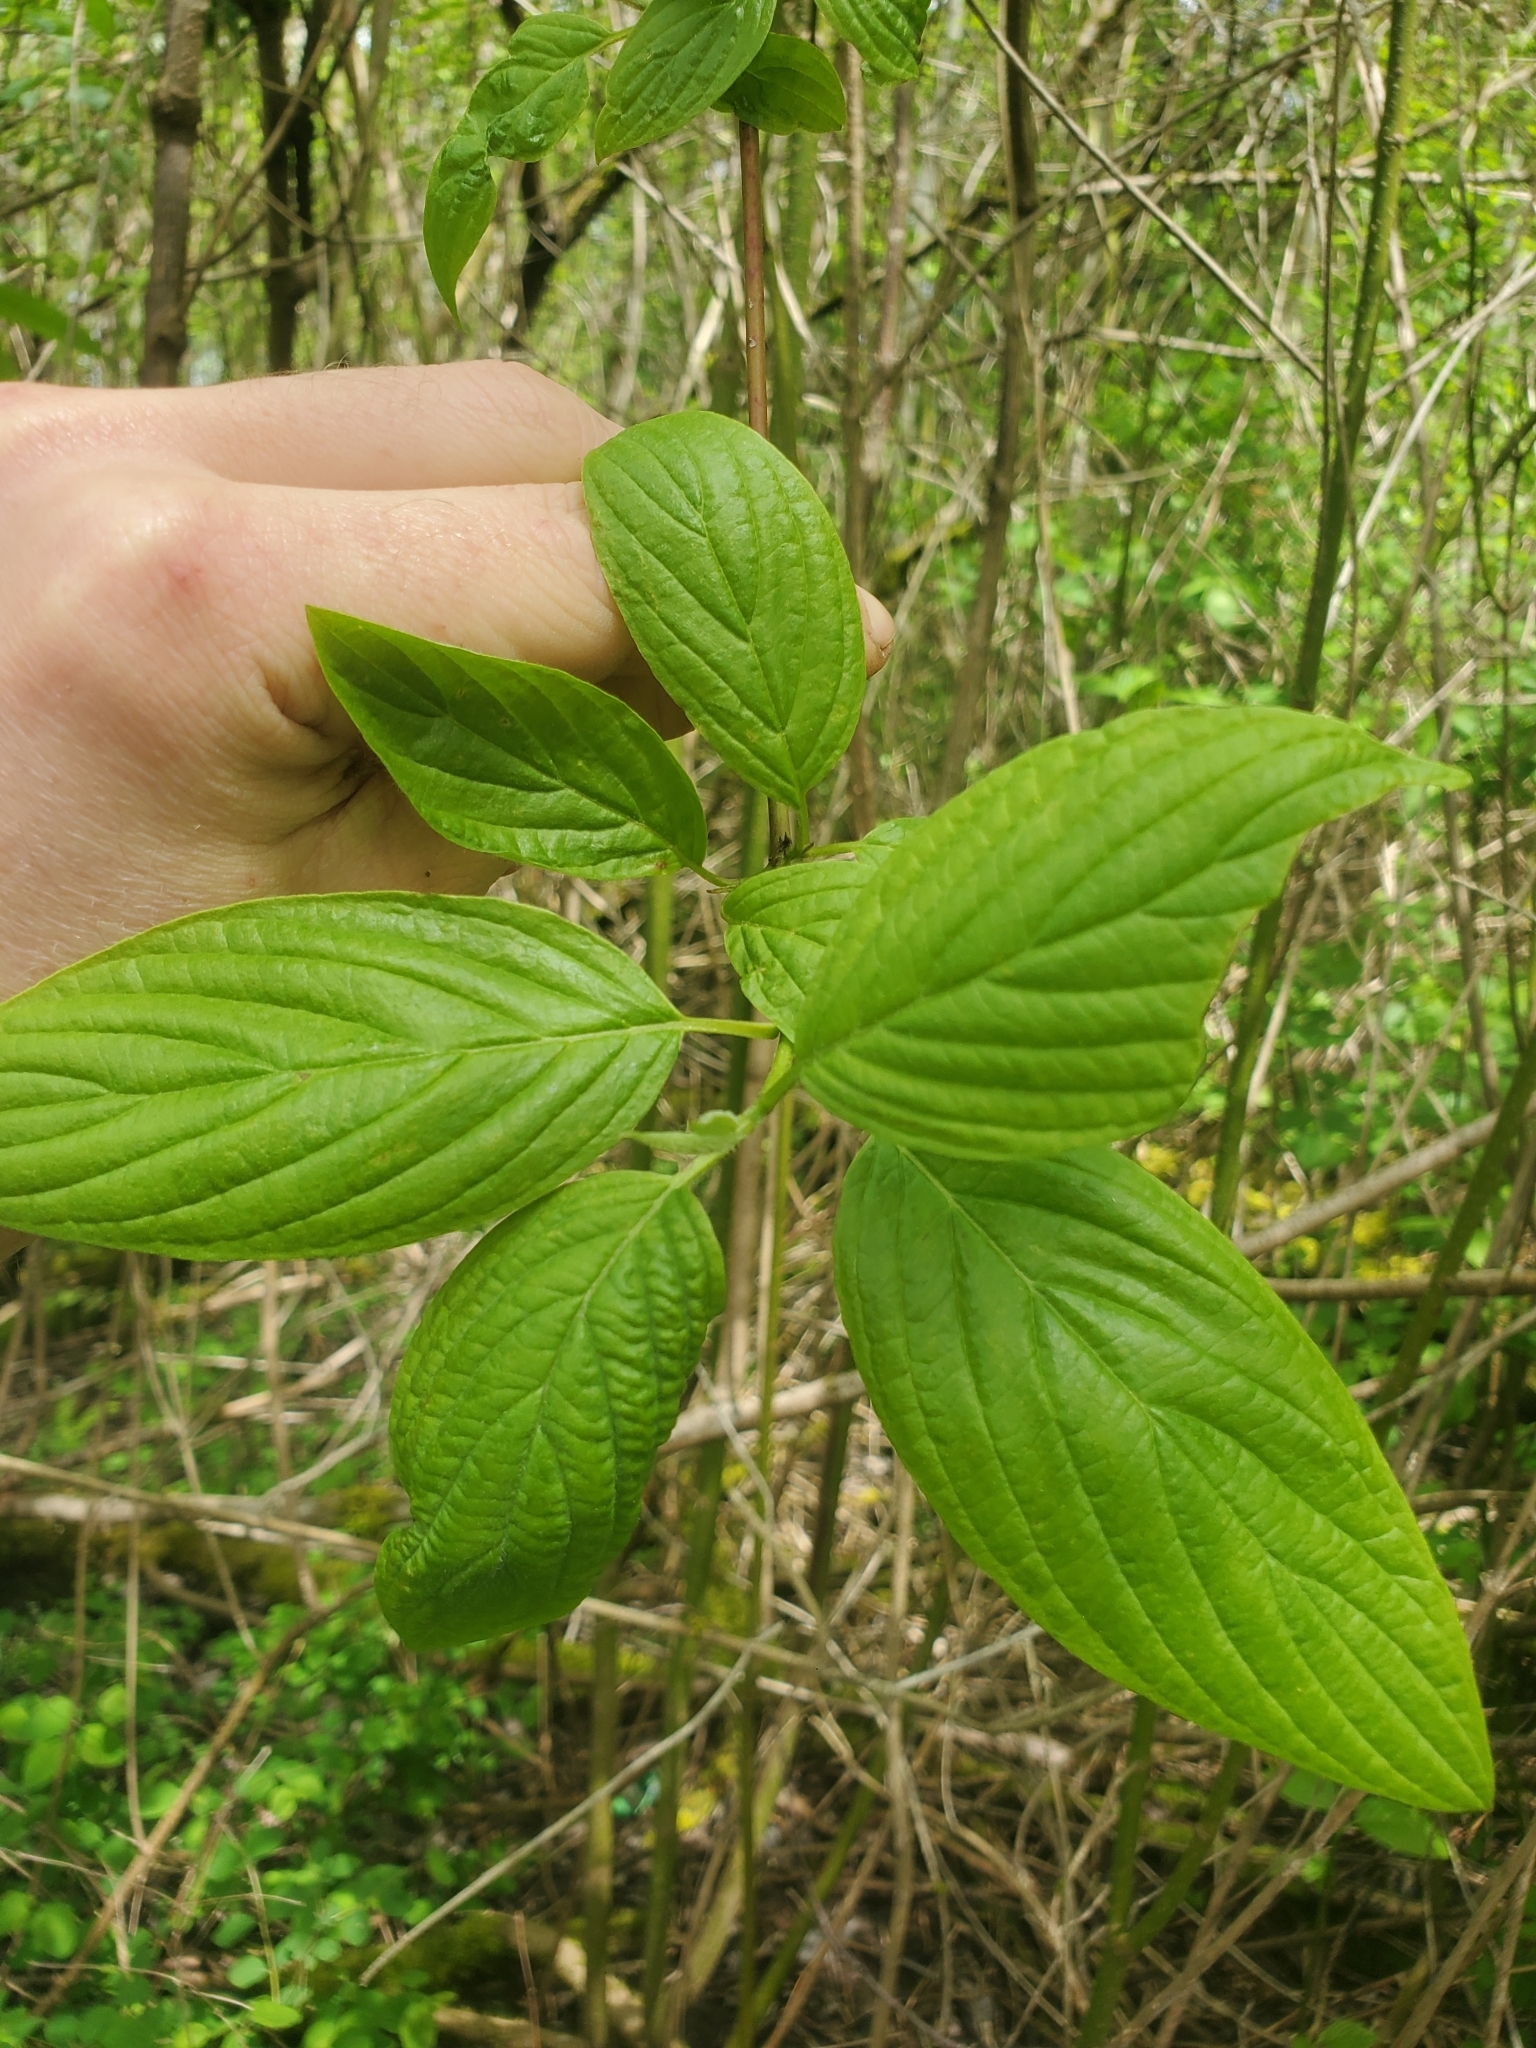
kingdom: Plantae
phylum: Tracheophyta
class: Magnoliopsida
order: Cornales
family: Cornaceae
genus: Cornus
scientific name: Cornus sericea
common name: Red-osier dogwood
